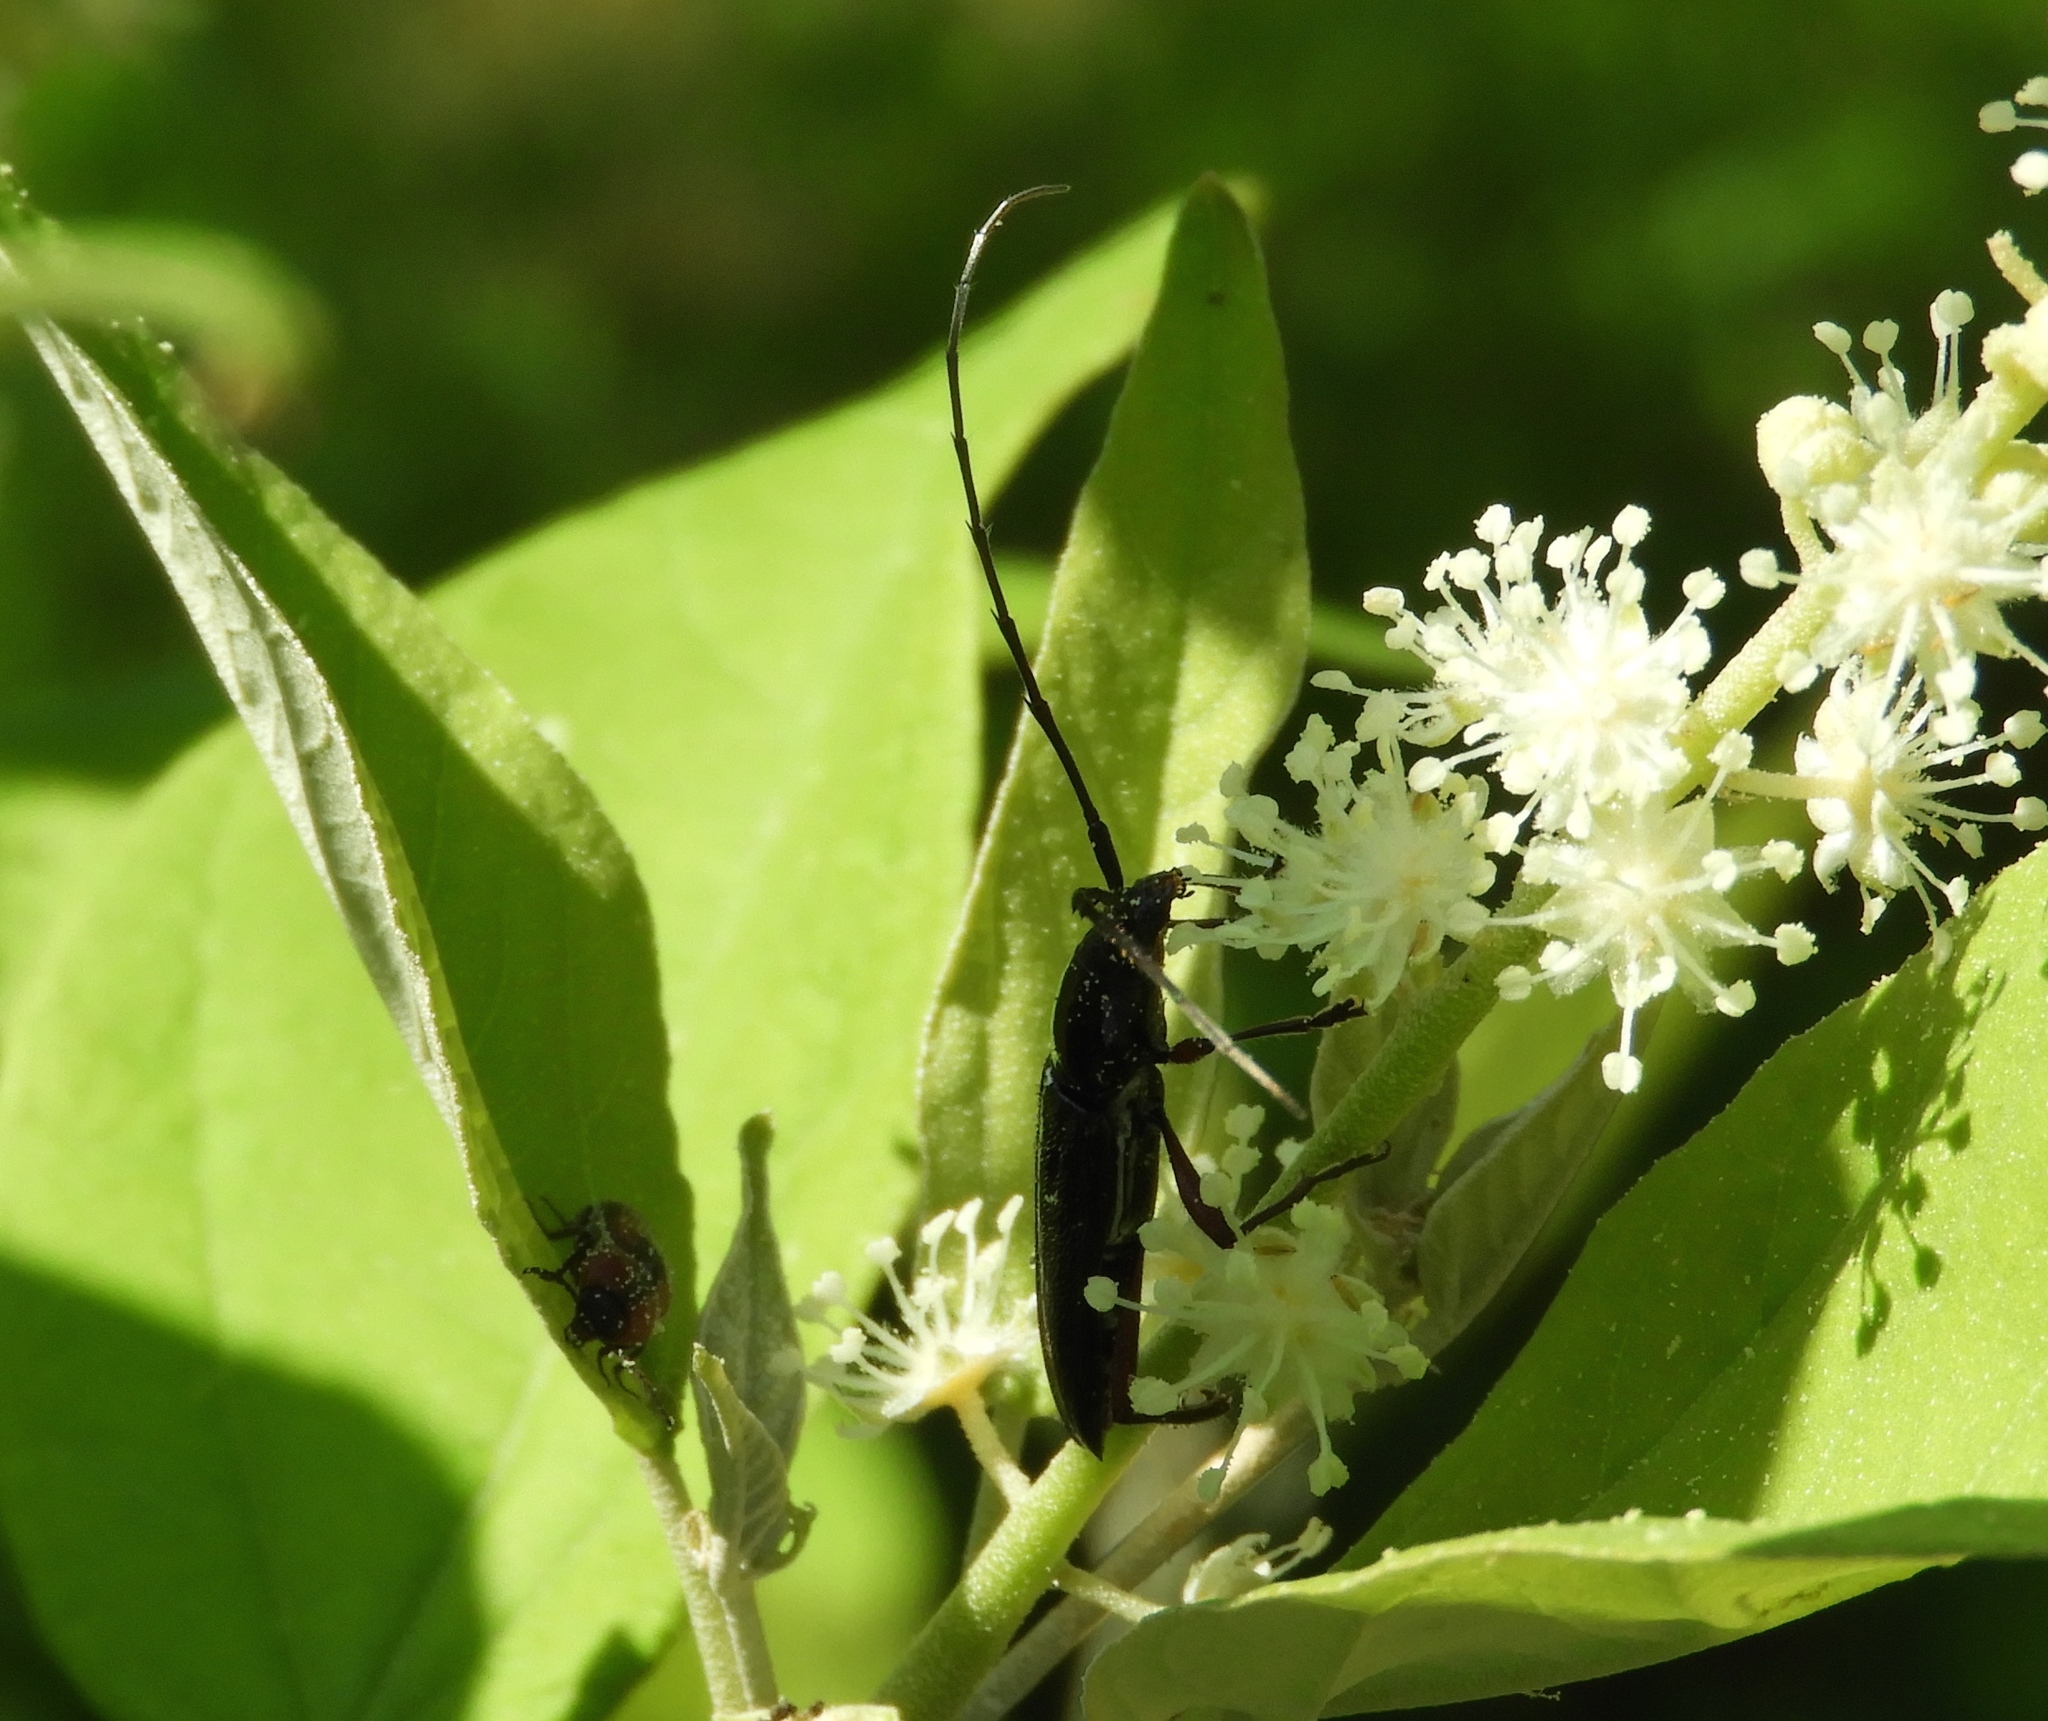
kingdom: Animalia
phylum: Arthropoda
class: Insecta
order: Coleoptera
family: Cerambycidae
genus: Stenosphenus
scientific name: Stenosphenus
